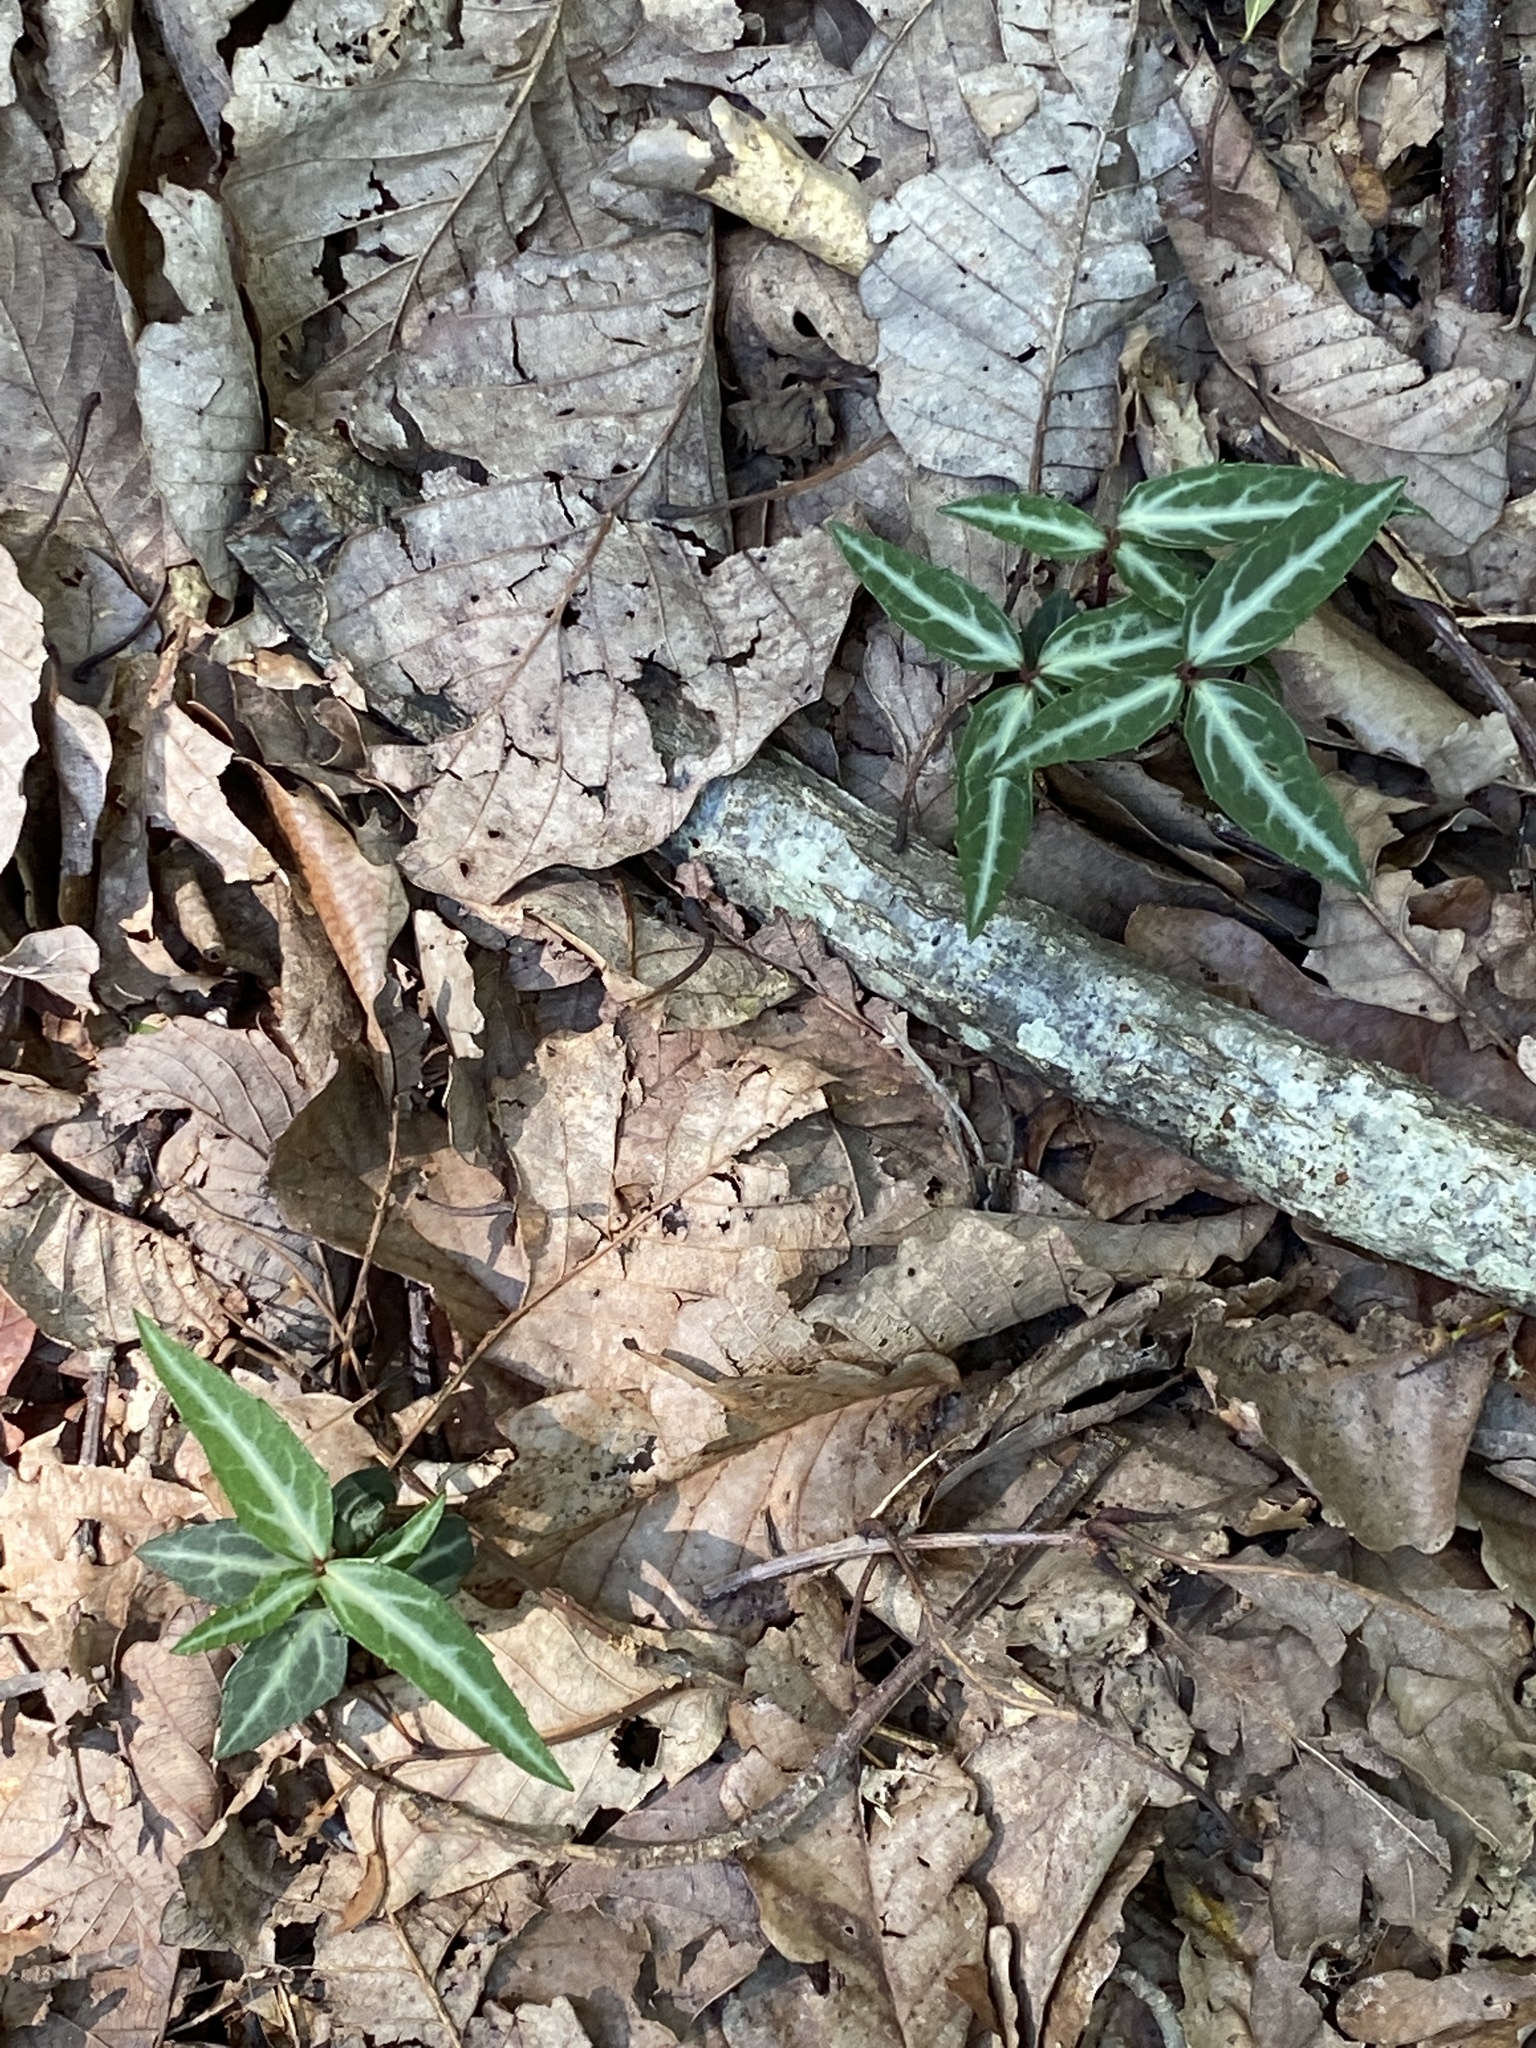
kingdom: Plantae
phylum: Tracheophyta
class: Magnoliopsida
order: Ericales
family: Ericaceae
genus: Chimaphila
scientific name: Chimaphila maculata
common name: Spotted pipsissewa
